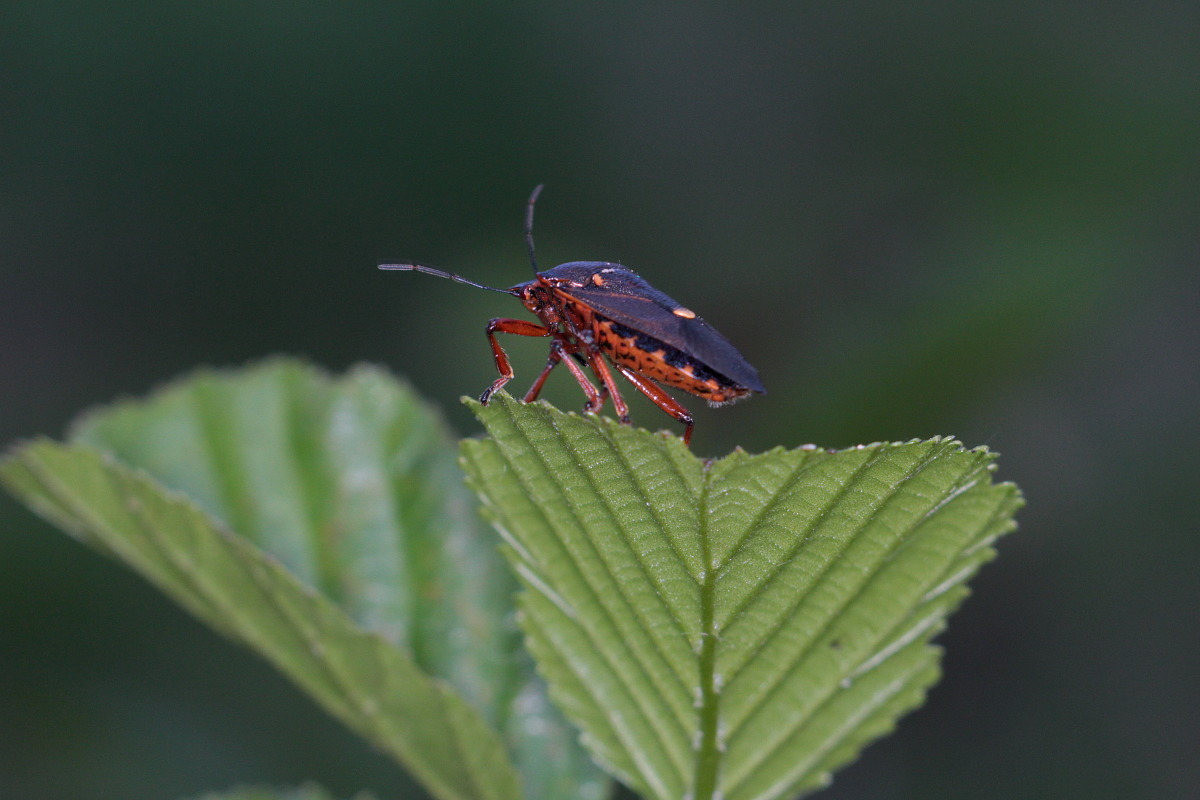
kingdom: Animalia
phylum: Arthropoda
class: Insecta
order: Hemiptera
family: Pentatomidae
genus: Pinthaeus
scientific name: Pinthaeus sanguinipes
